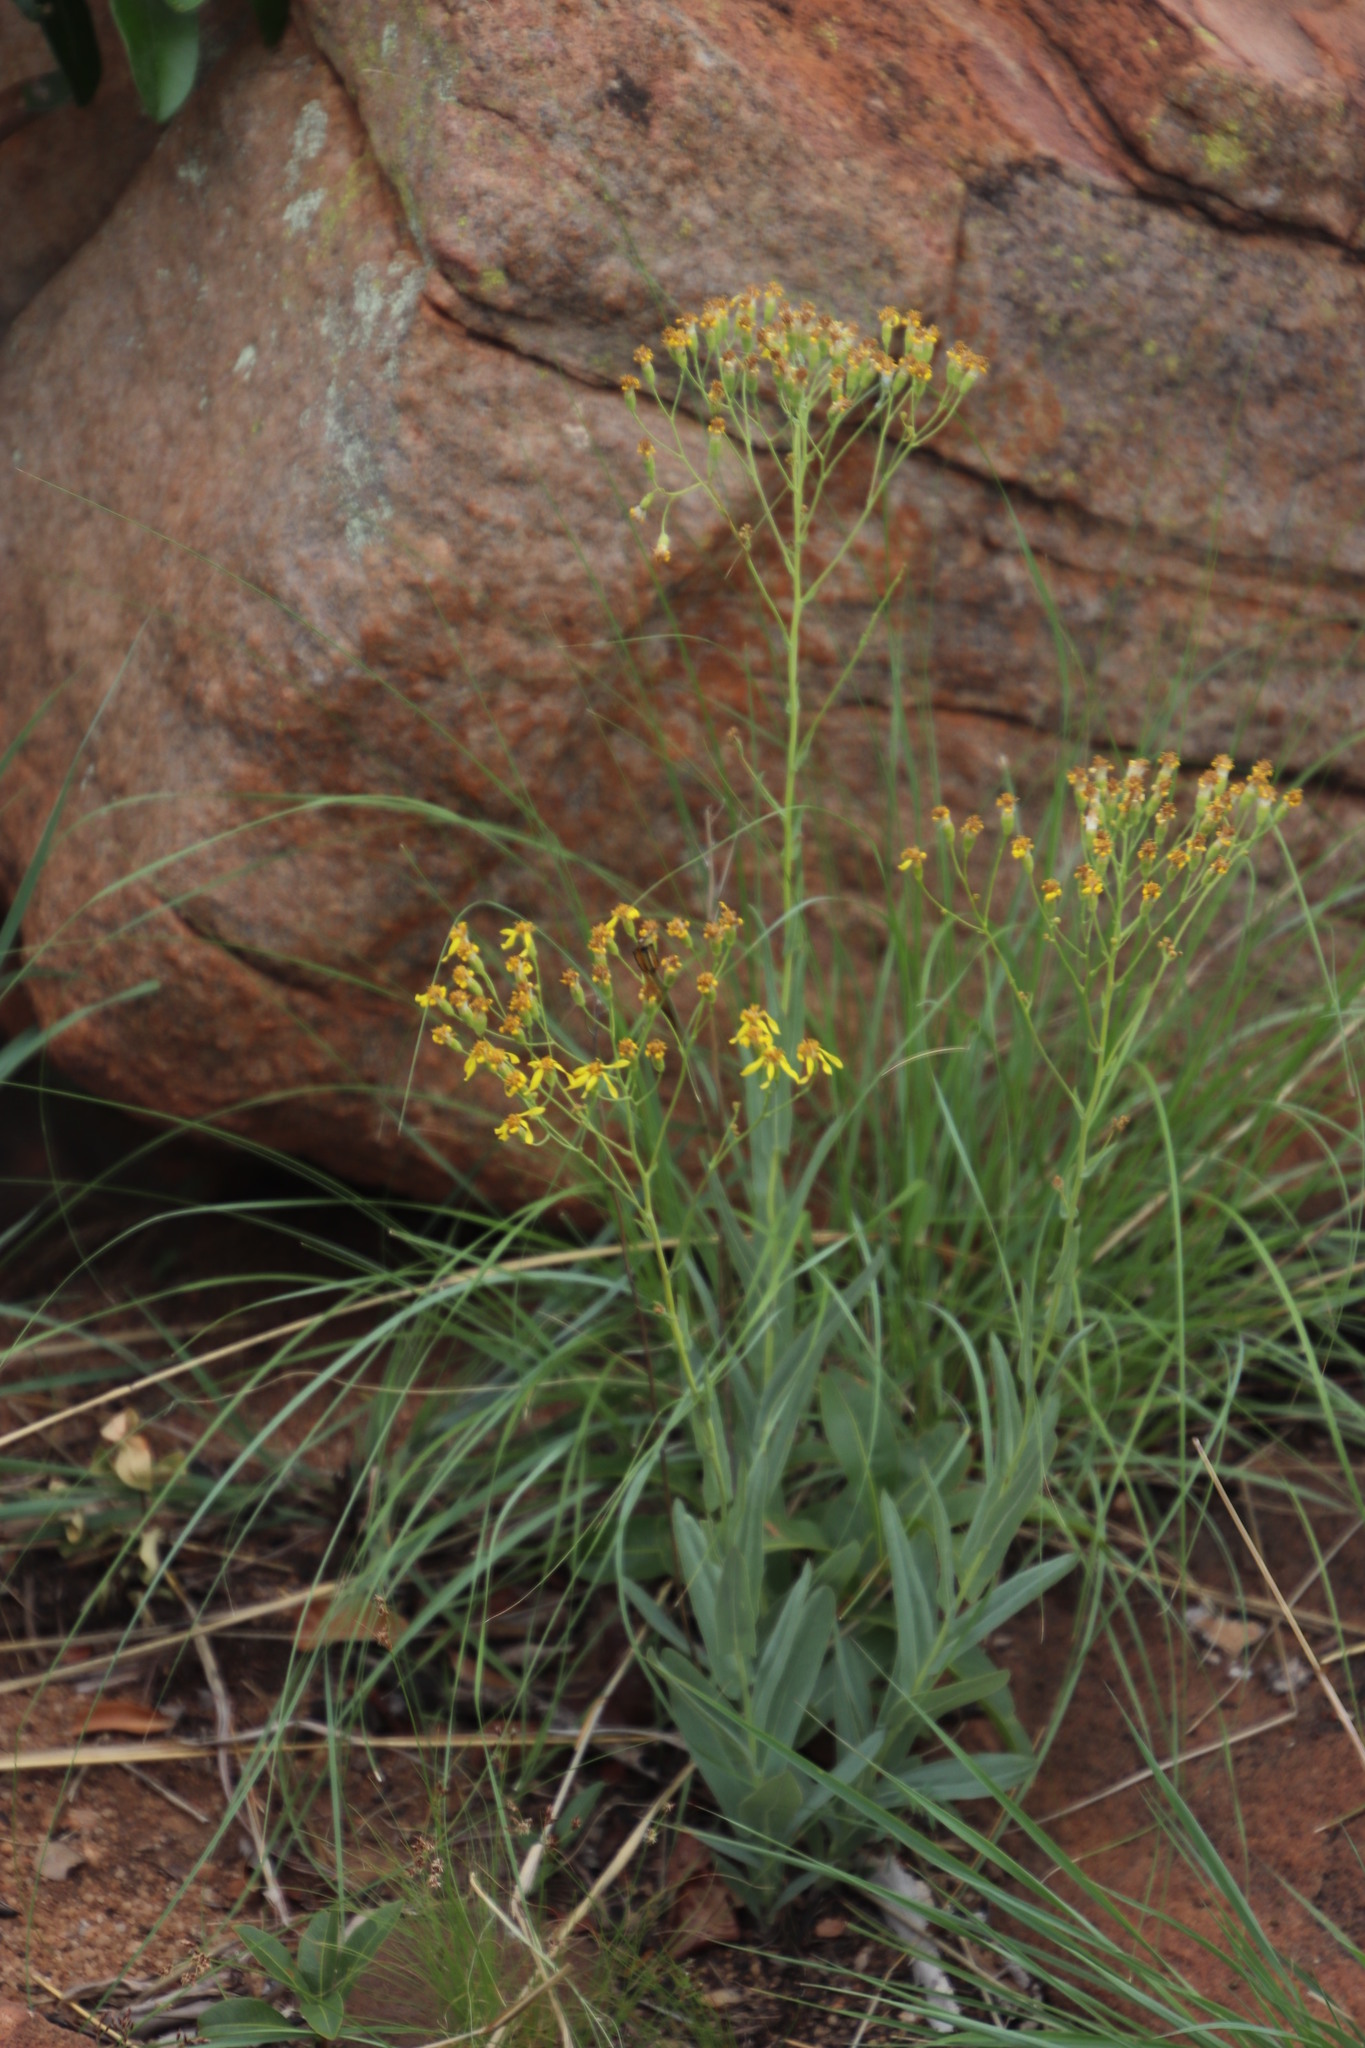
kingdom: Plantae
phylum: Tracheophyta
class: Magnoliopsida
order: Asterales
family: Asteraceae
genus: Senecio
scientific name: Senecio venosus
